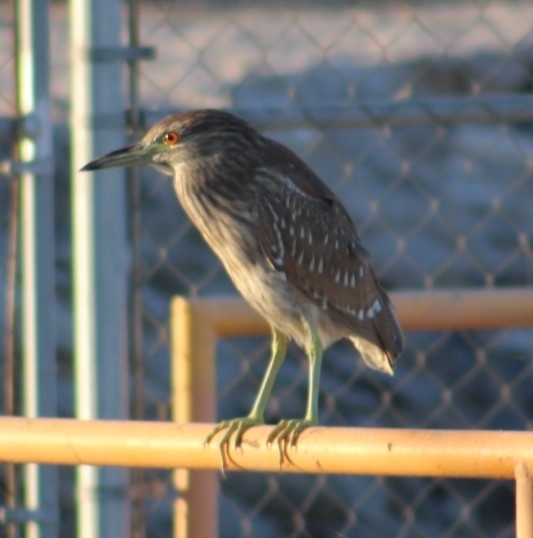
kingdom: Animalia
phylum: Chordata
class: Aves
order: Pelecaniformes
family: Ardeidae
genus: Nycticorax
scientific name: Nycticorax nycticorax
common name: Black-crowned night heron
